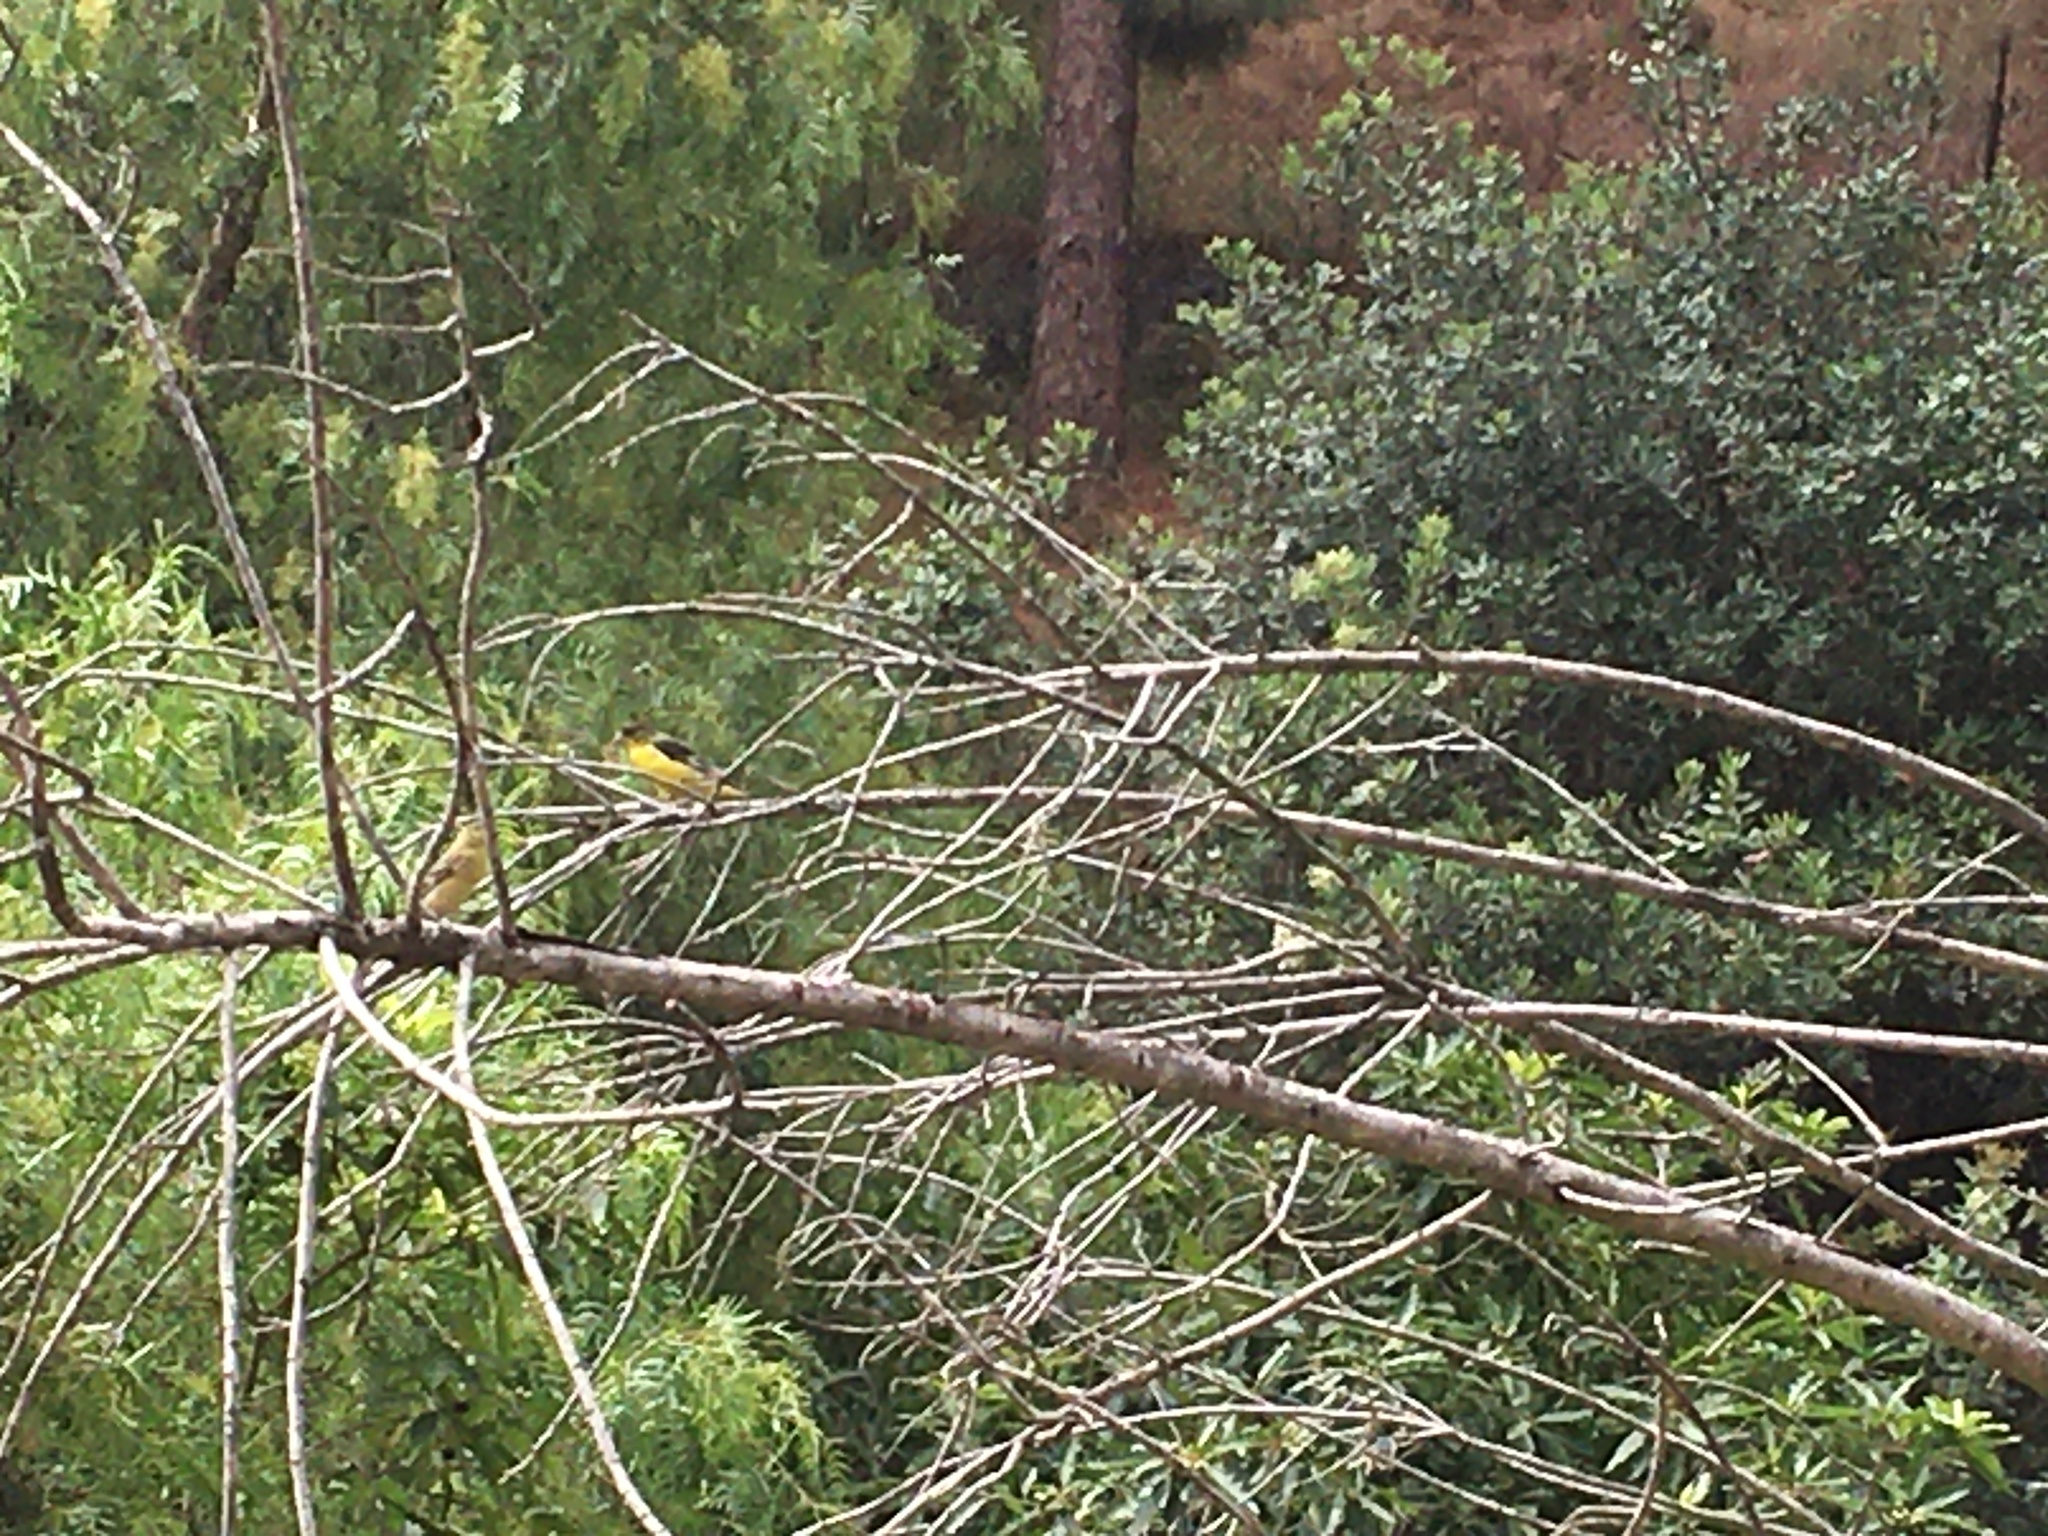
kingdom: Animalia
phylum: Chordata
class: Aves
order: Passeriformes
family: Fringillidae
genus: Spinus
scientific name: Spinus psaltria
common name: Lesser goldfinch
